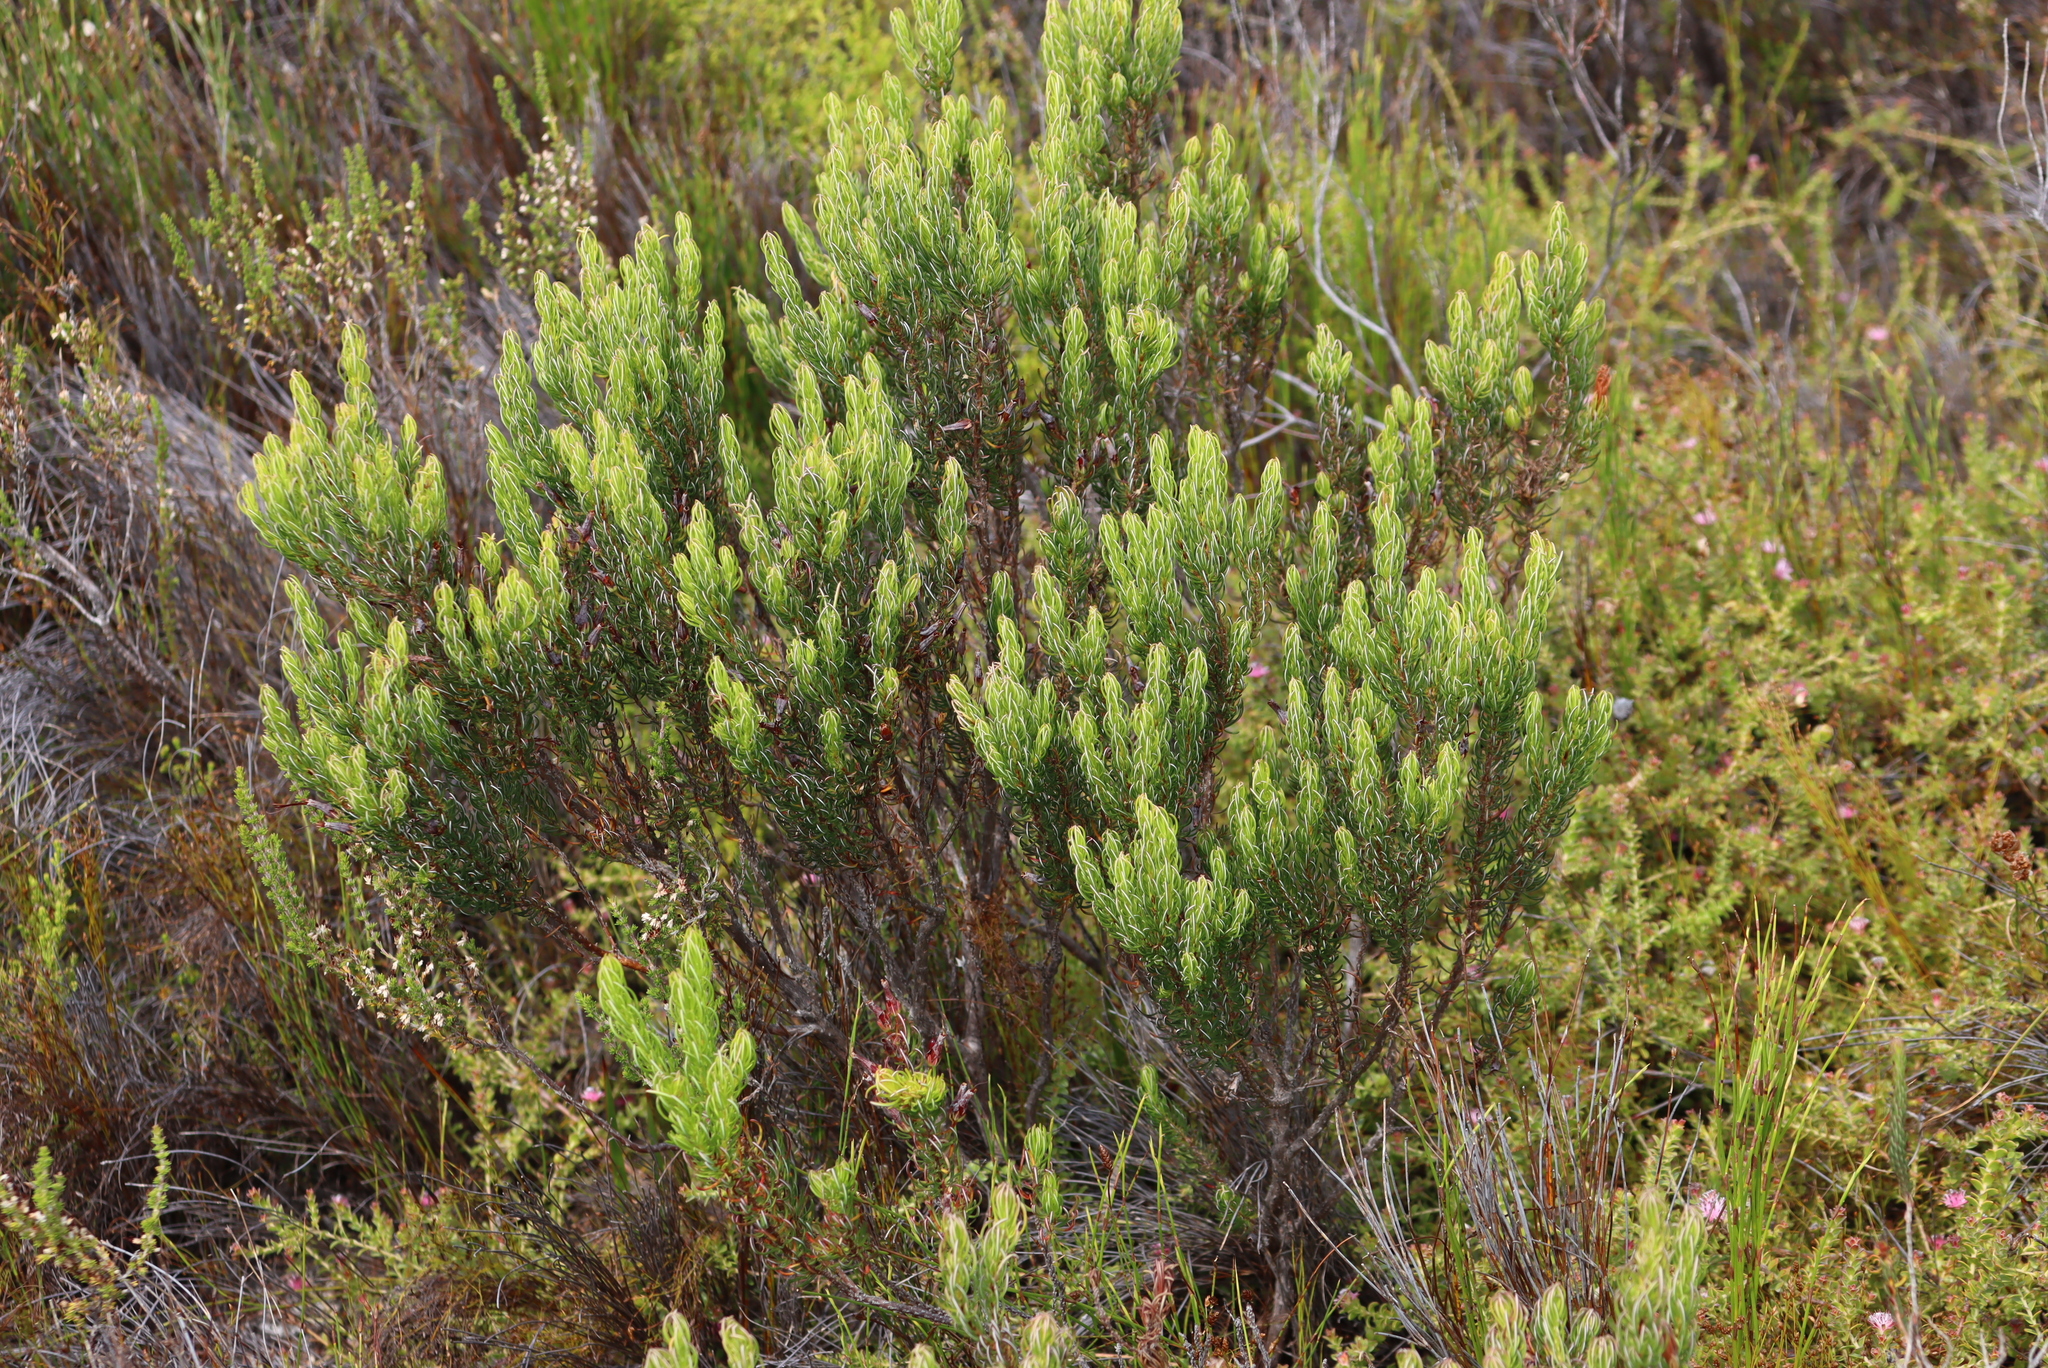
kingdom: Plantae
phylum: Tracheophyta
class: Magnoliopsida
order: Ericales
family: Ericaceae
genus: Erica
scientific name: Erica plukenetii
